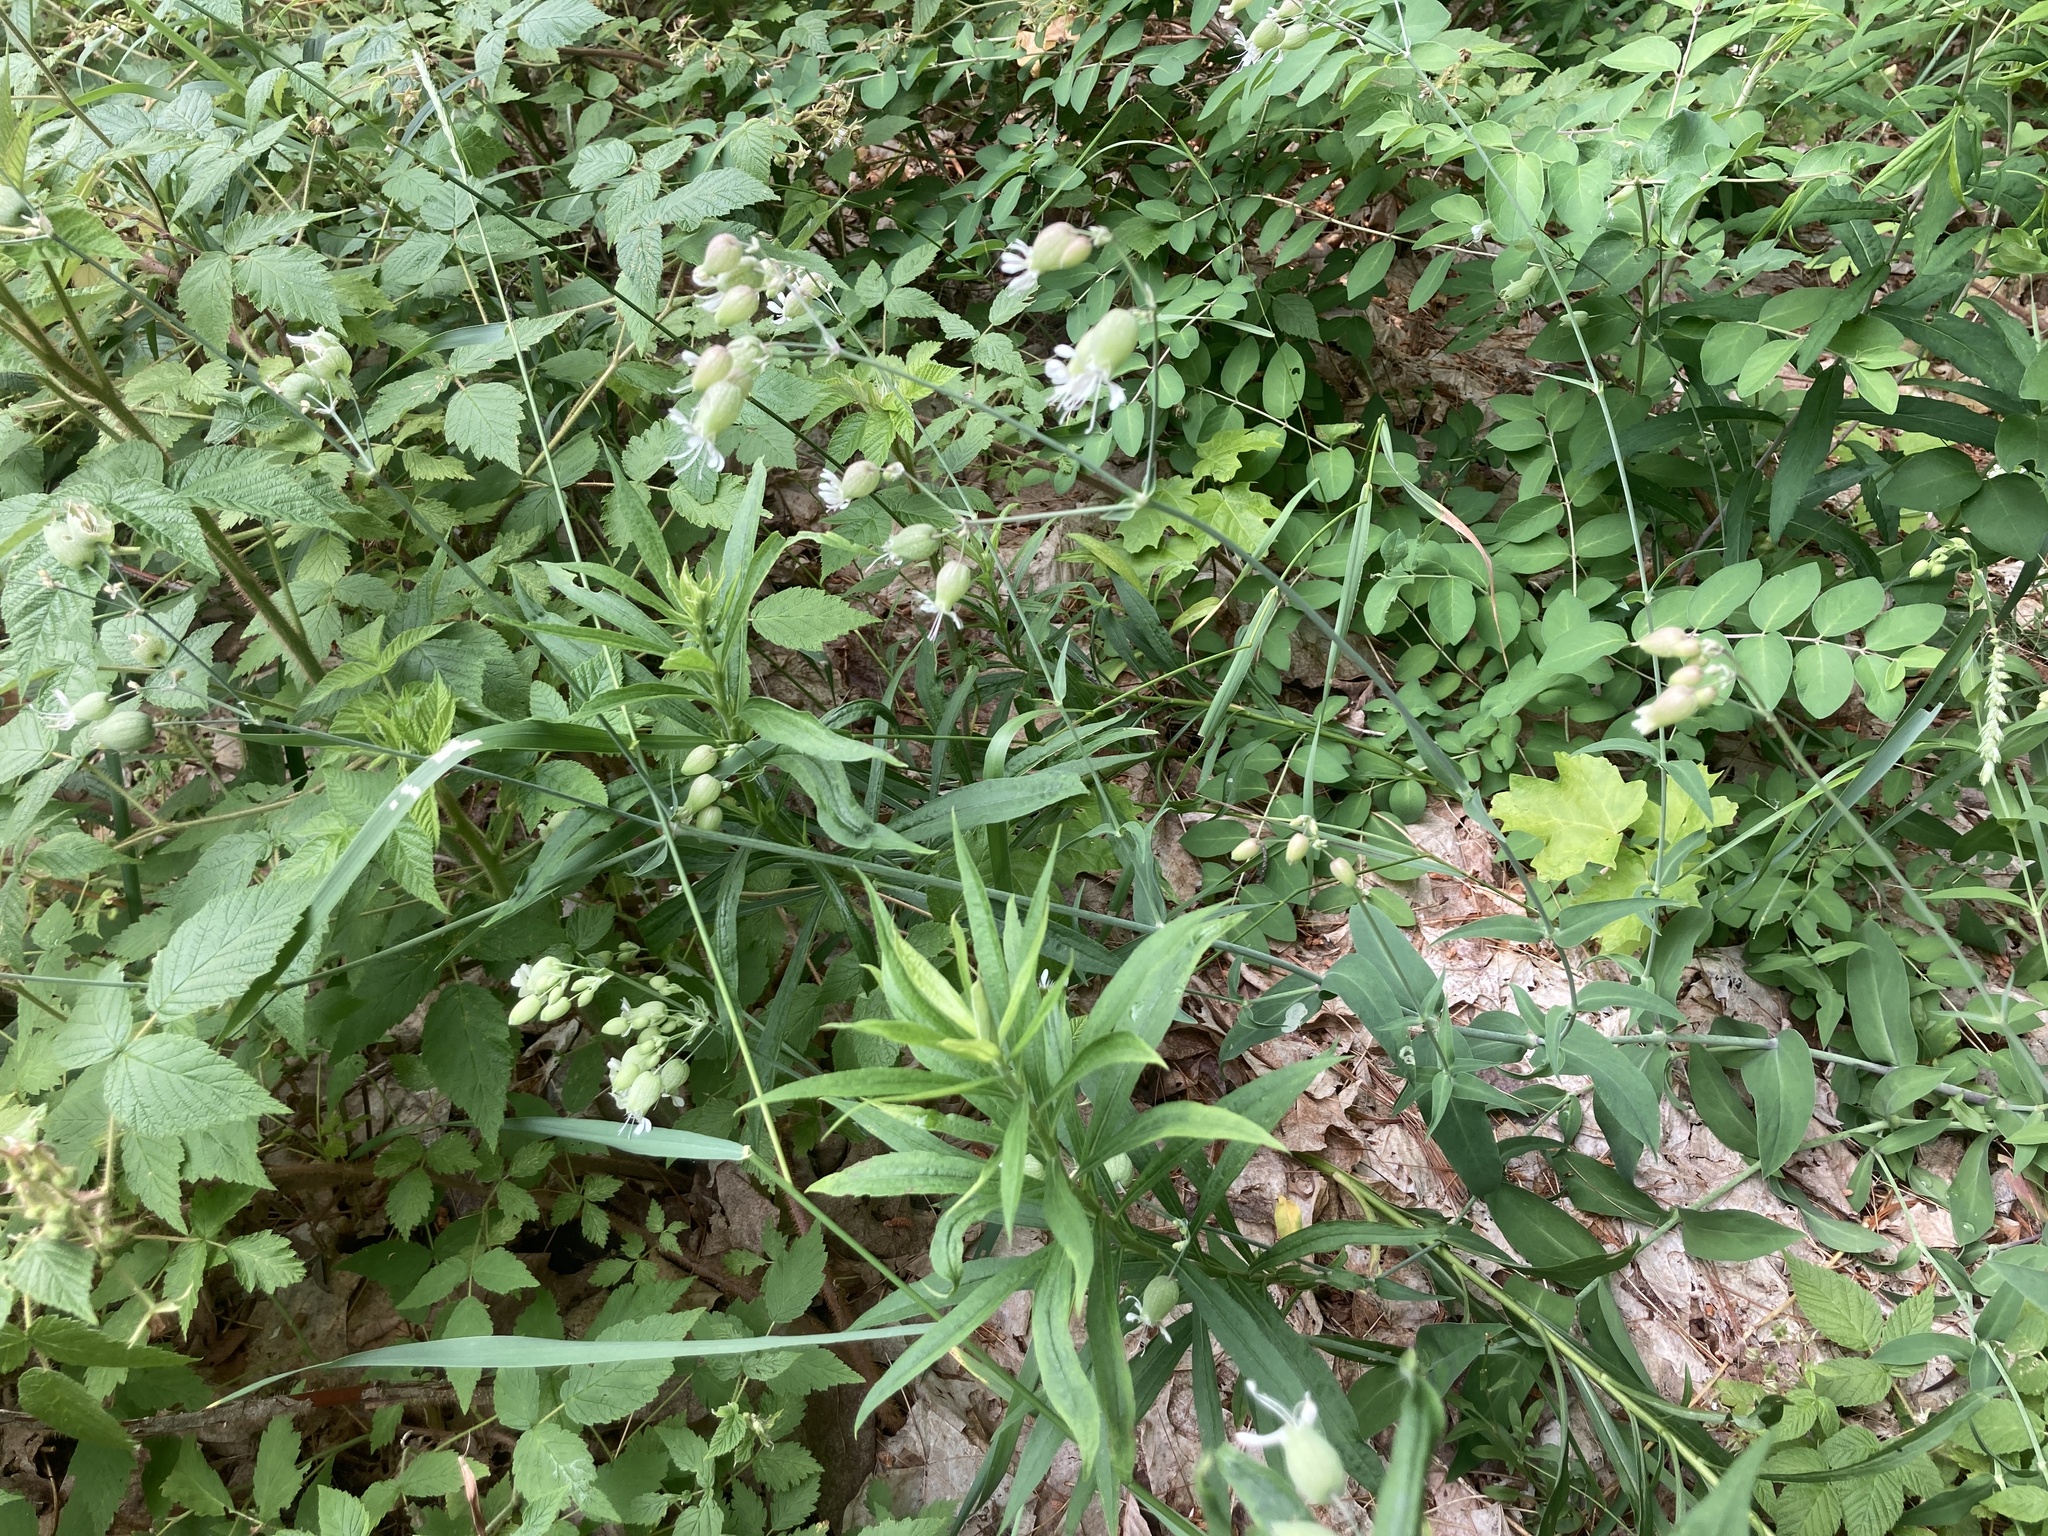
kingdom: Plantae
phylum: Tracheophyta
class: Magnoliopsida
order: Caryophyllales
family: Caryophyllaceae
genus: Silene
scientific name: Silene vulgaris
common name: Bladder campion
